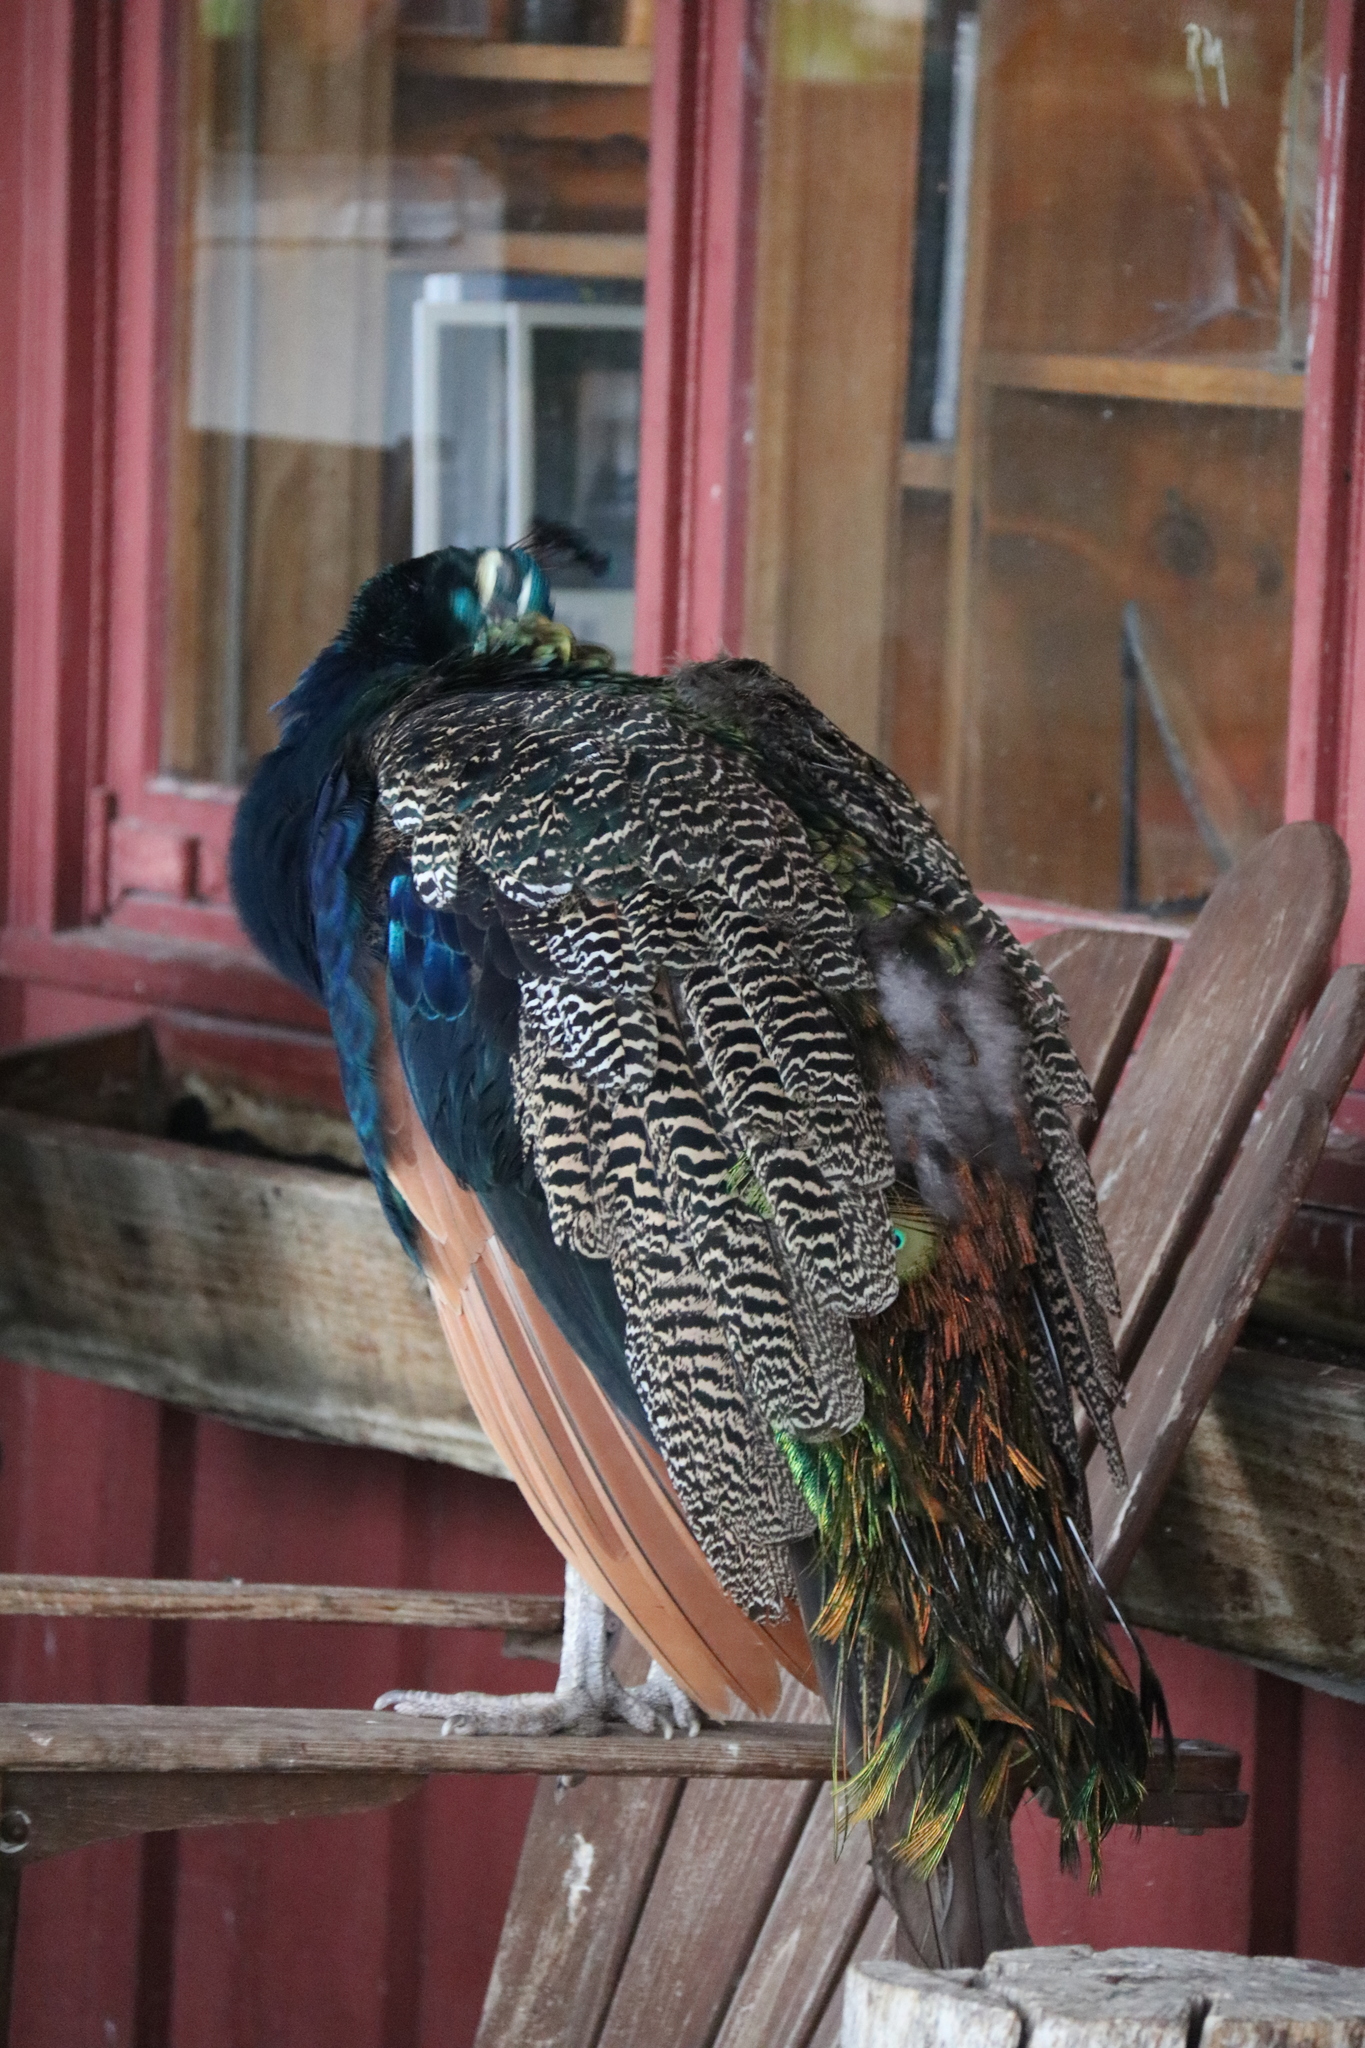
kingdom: Animalia
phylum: Chordata
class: Aves
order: Galliformes
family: Phasianidae
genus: Pavo
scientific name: Pavo cristatus
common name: Indian peafowl
